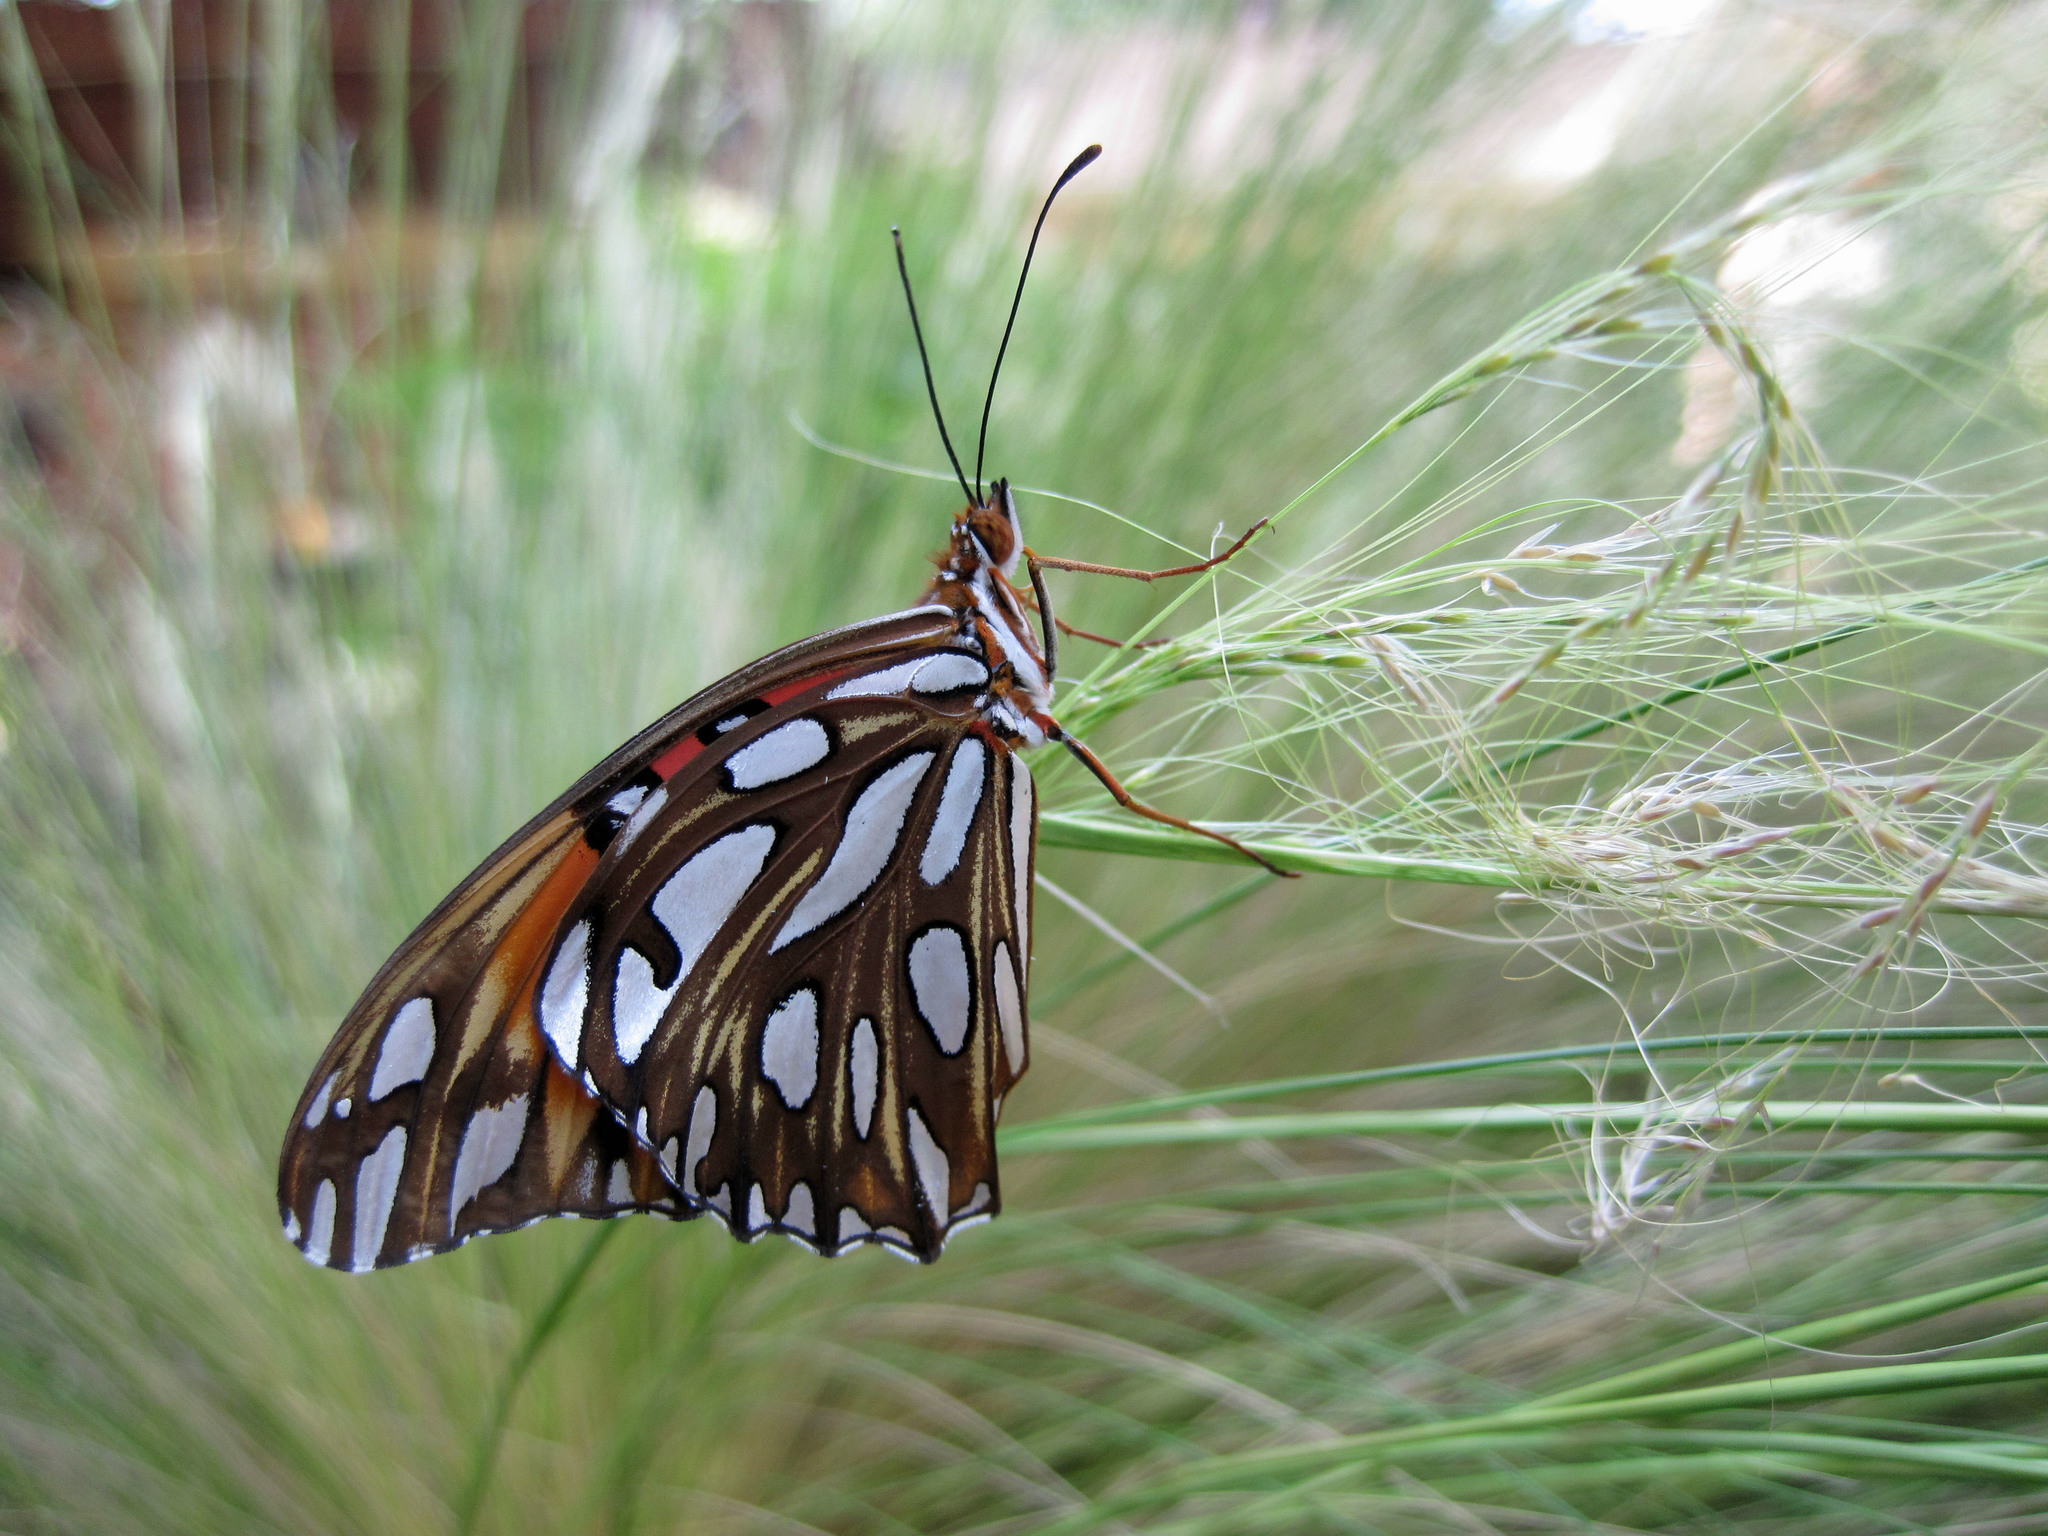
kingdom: Animalia
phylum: Arthropoda
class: Insecta
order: Lepidoptera
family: Nymphalidae
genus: Dione
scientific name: Dione vanillae
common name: Gulf fritillary
